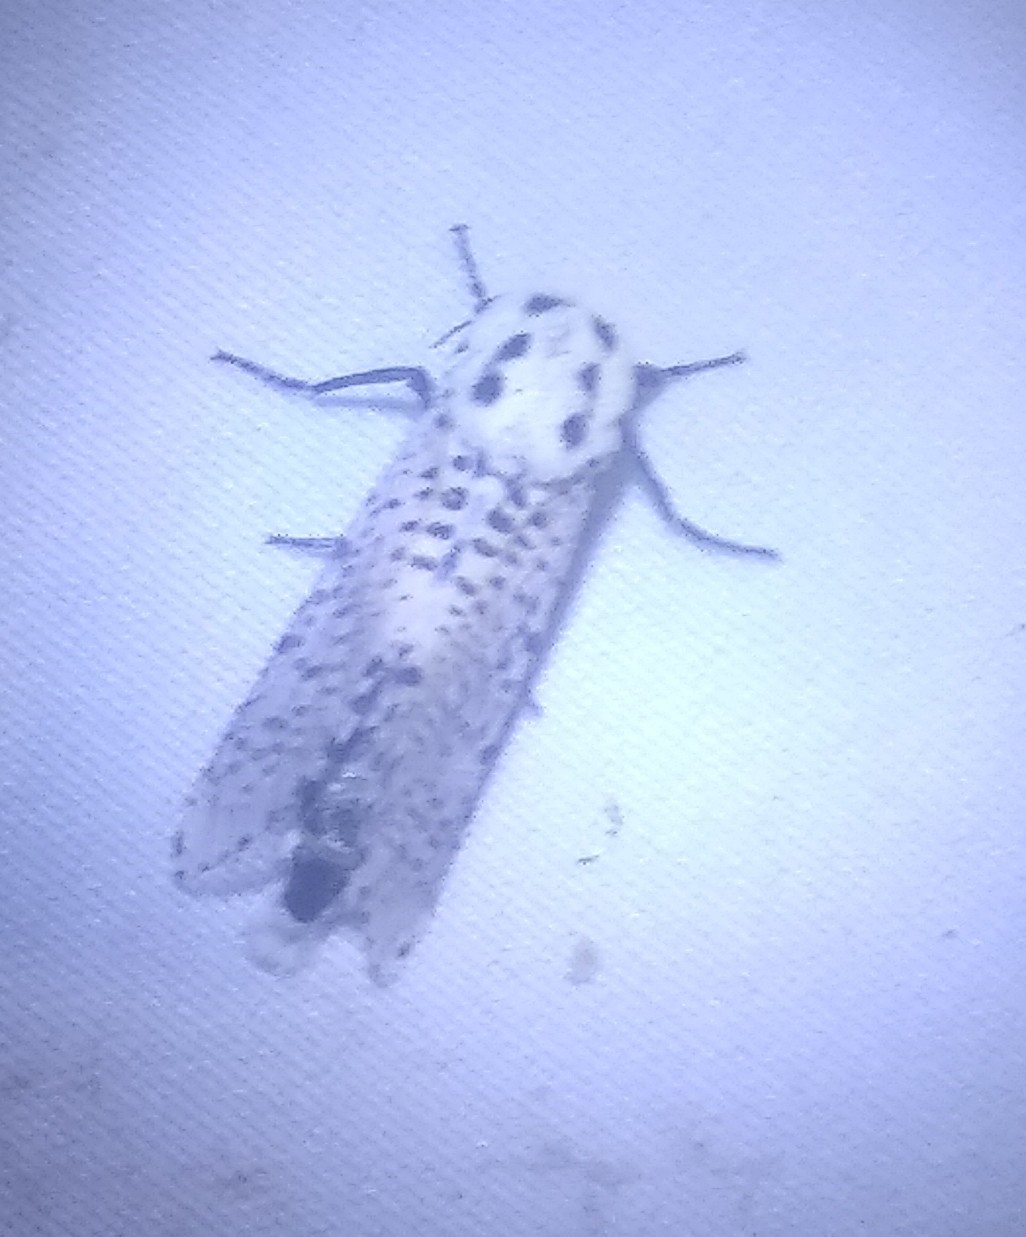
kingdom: Animalia
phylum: Arthropoda
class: Insecta
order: Lepidoptera
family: Cossidae
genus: Zeuzera
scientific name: Zeuzera pyrina
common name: Leopard moth
